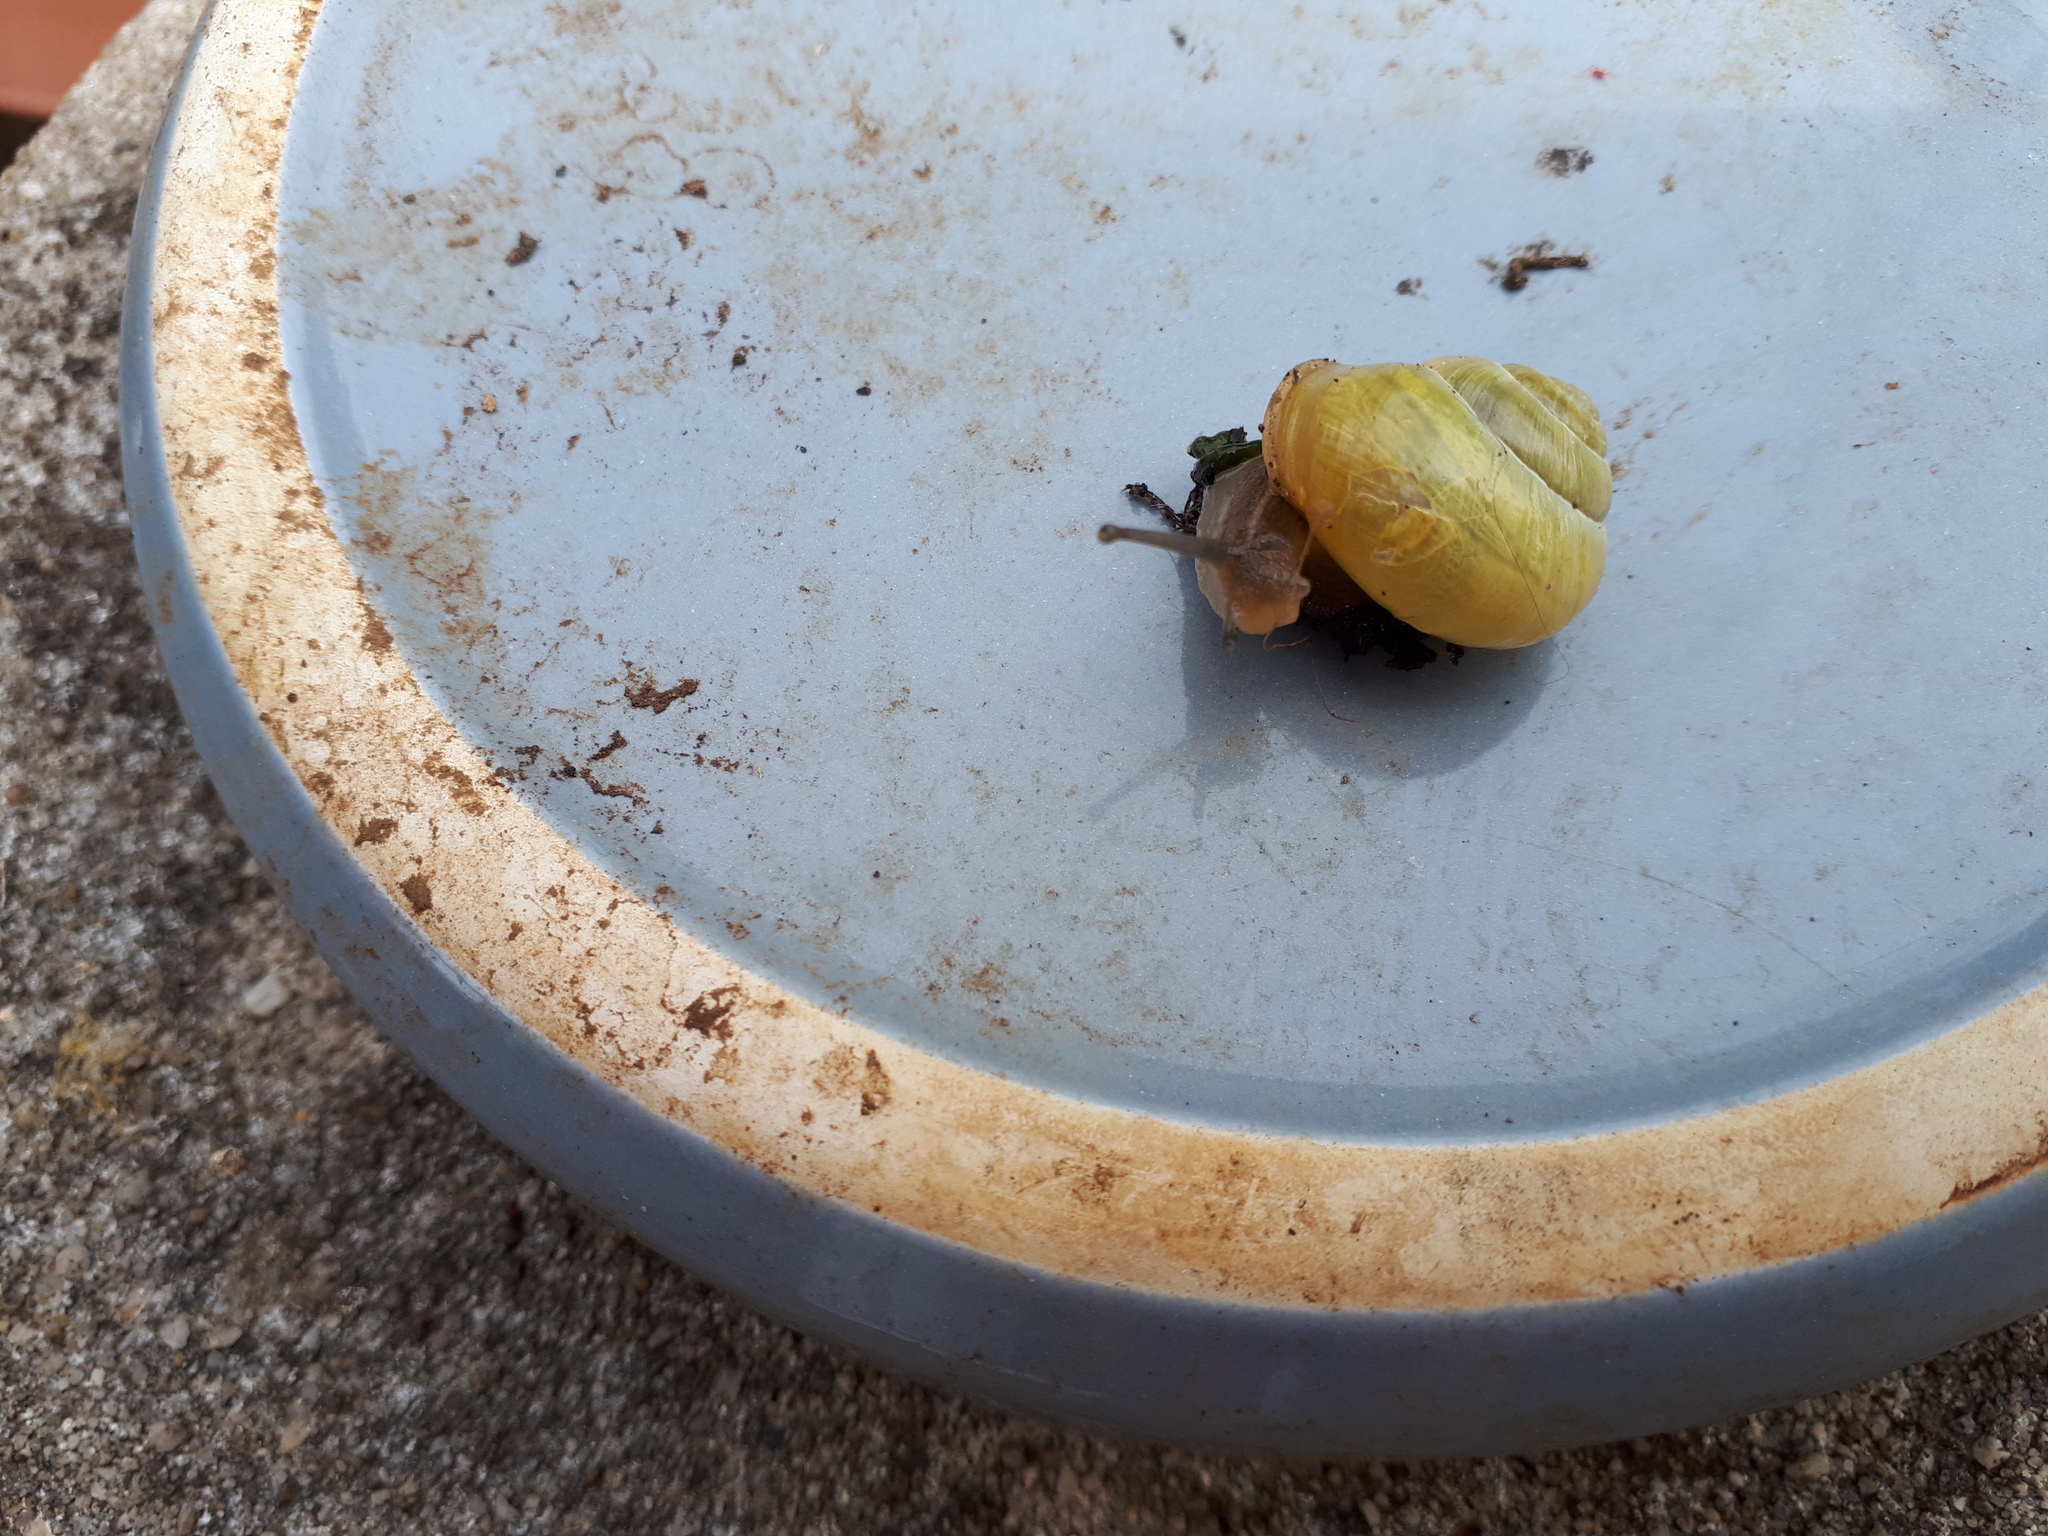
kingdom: Animalia
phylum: Mollusca
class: Gastropoda
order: Stylommatophora
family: Helicidae
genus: Cepaea
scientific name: Cepaea hortensis
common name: White-lip gardensnail
